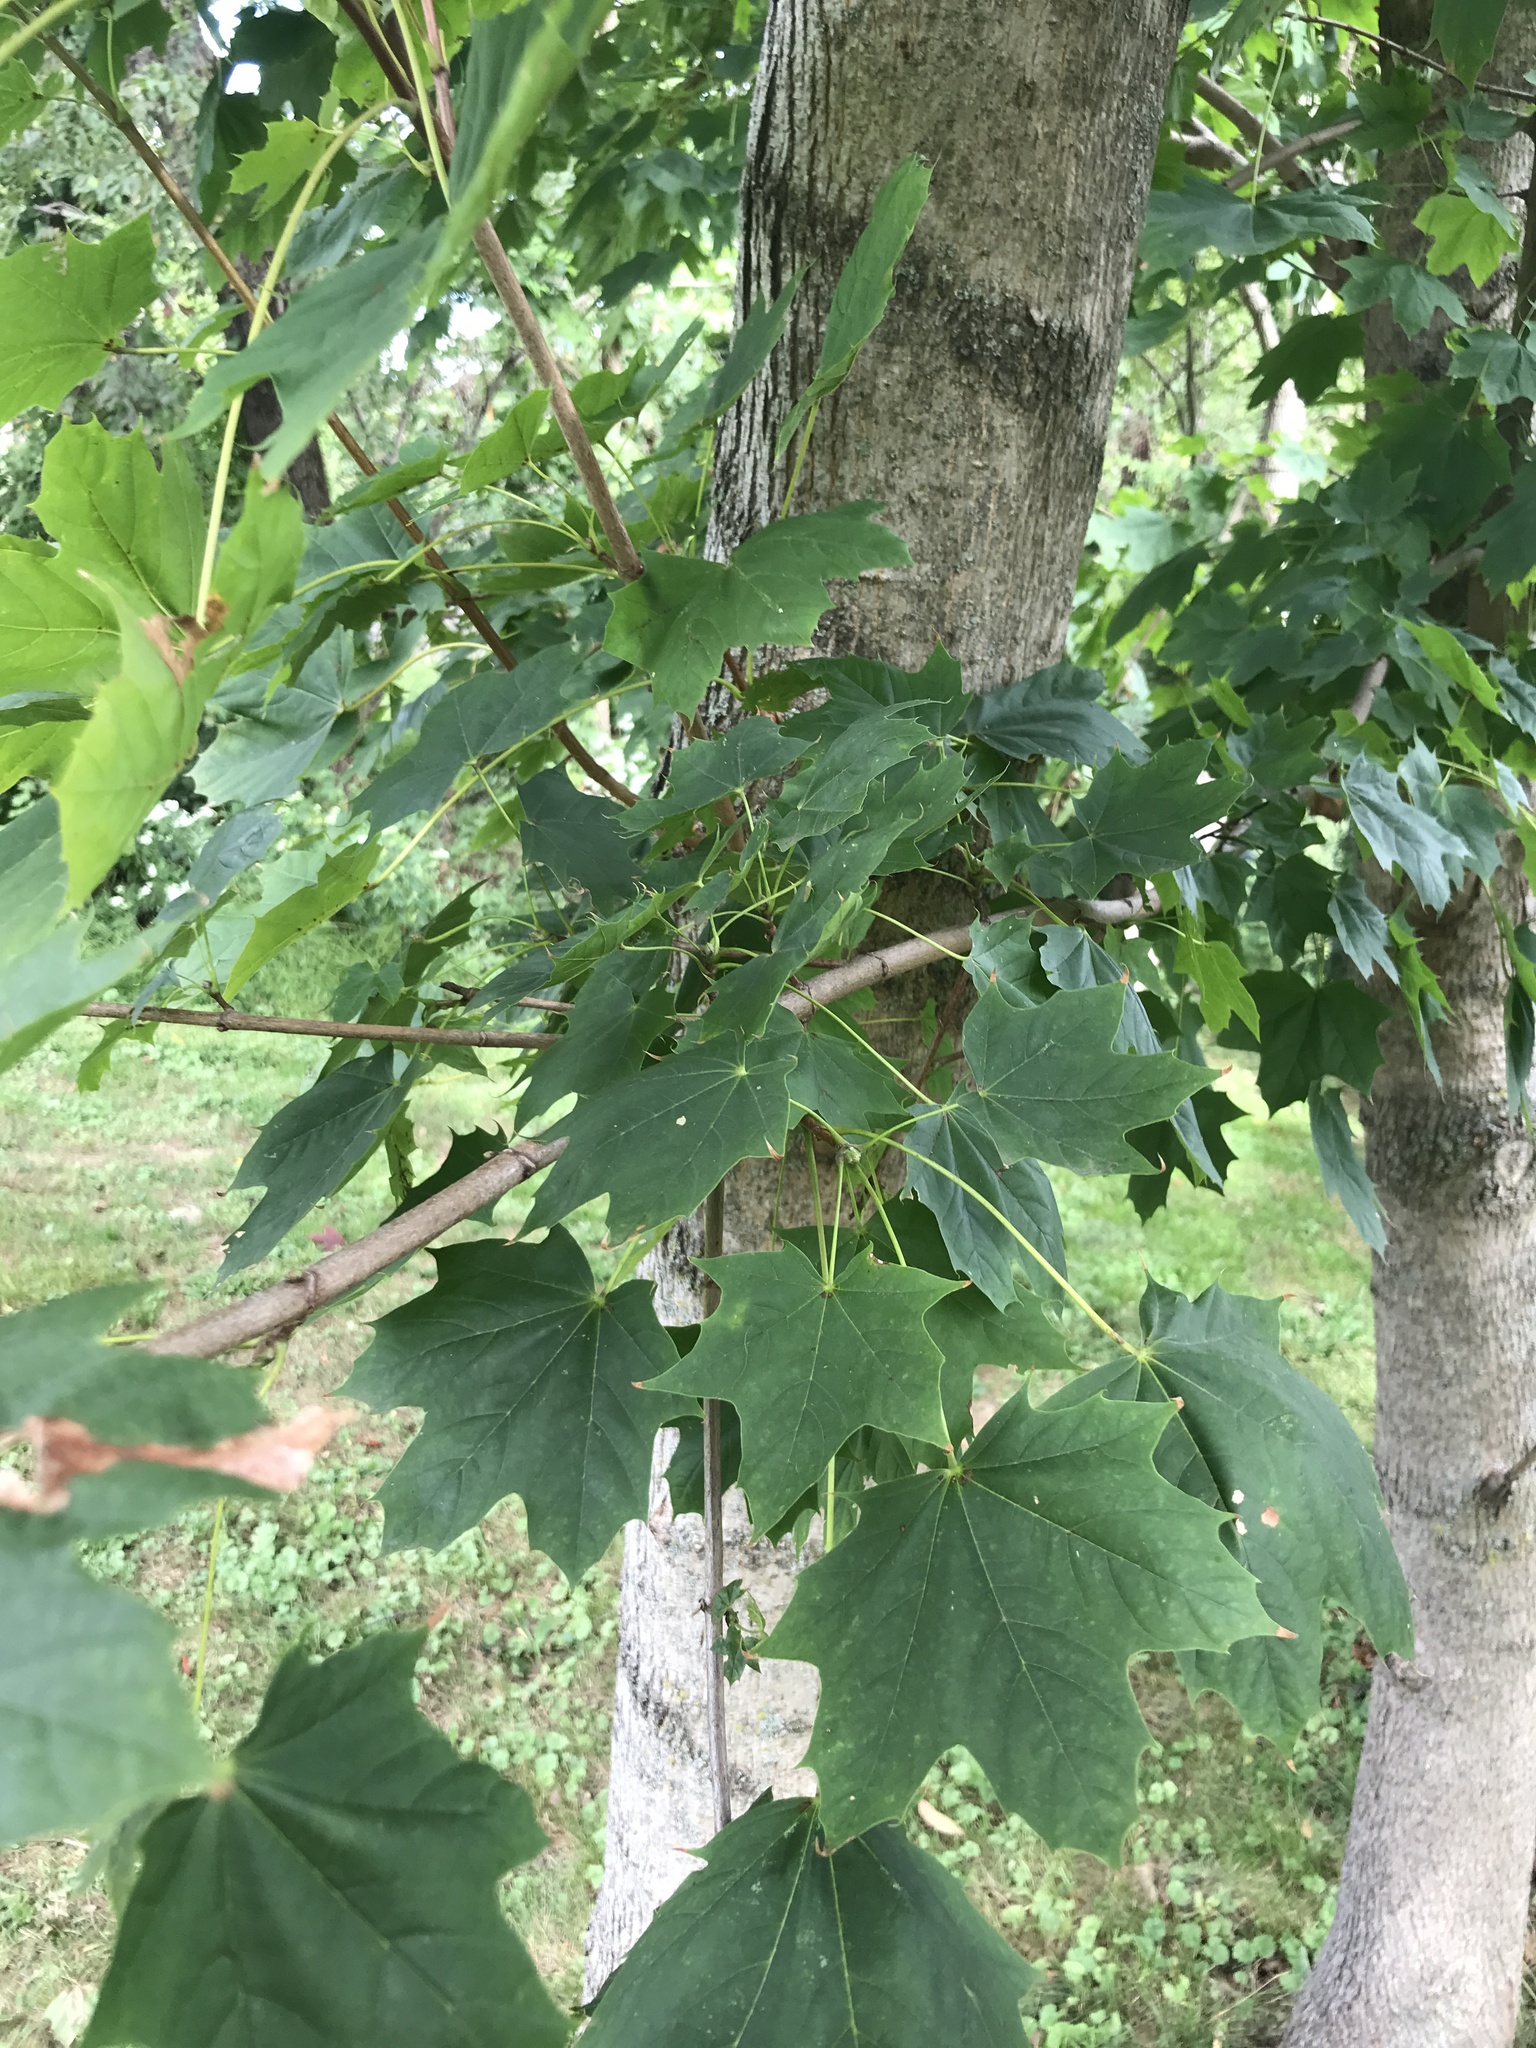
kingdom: Plantae
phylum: Tracheophyta
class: Magnoliopsida
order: Sapindales
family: Sapindaceae
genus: Acer
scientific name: Acer platanoides
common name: Norway maple
